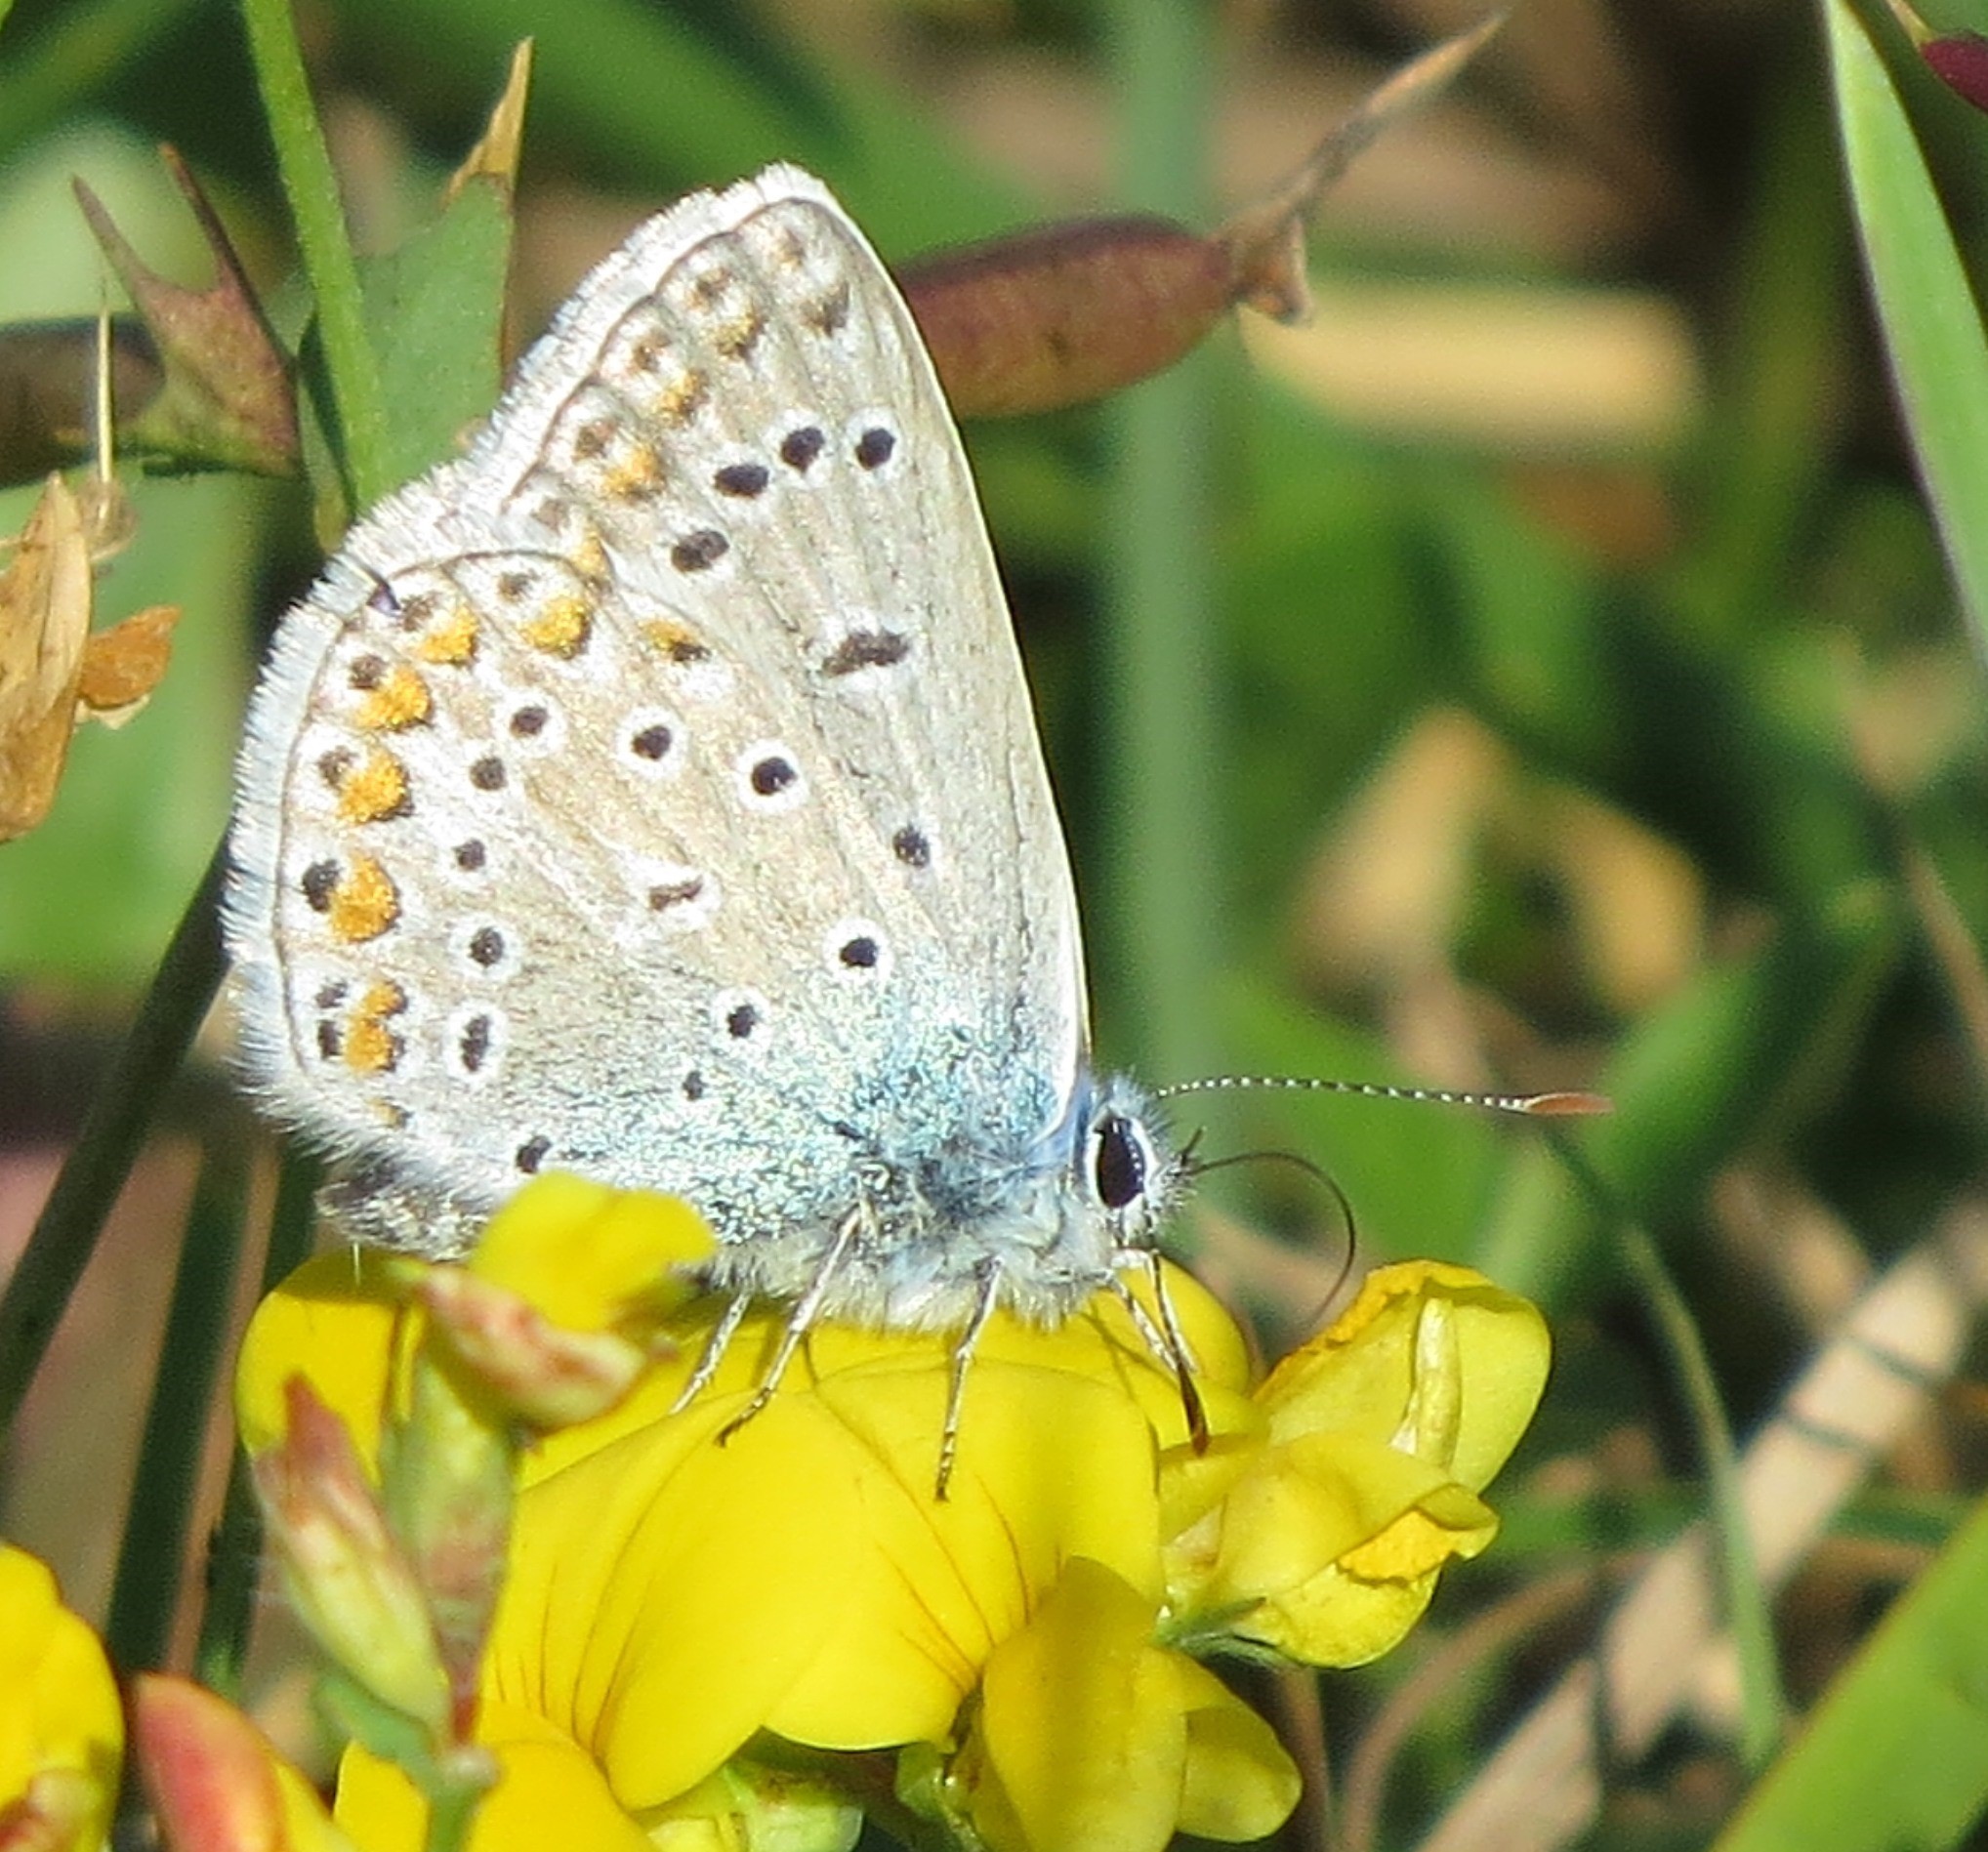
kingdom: Animalia
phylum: Arthropoda
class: Insecta
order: Lepidoptera
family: Lycaenidae
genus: Polyommatus
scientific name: Polyommatus icarus
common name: Common blue
